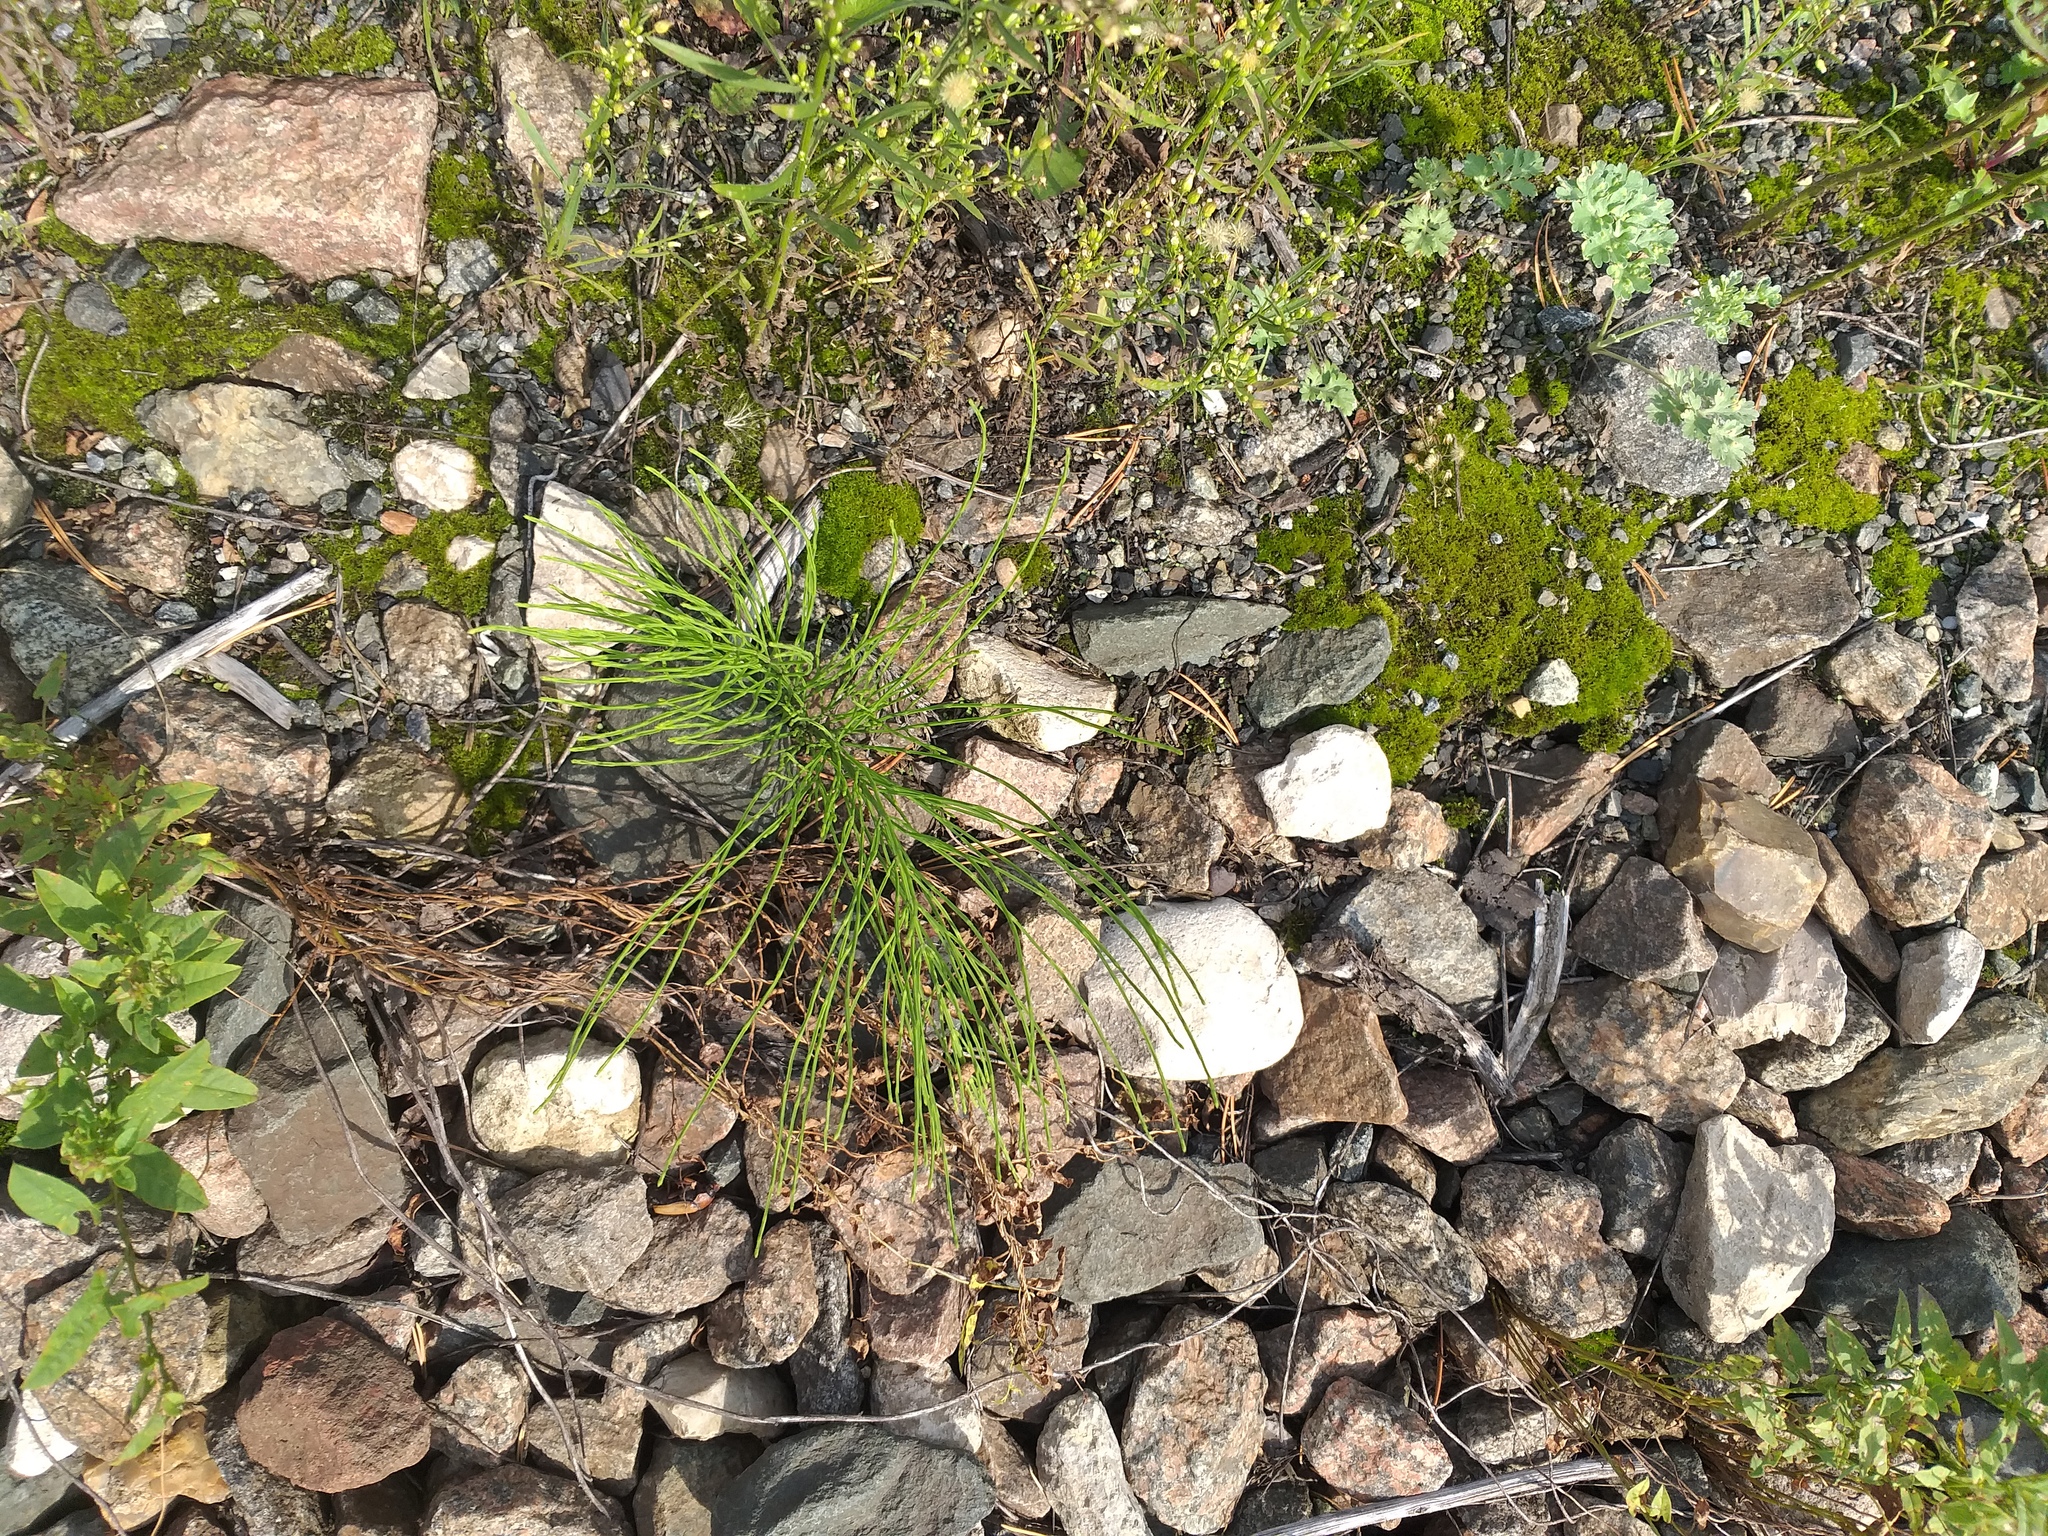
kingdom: Plantae
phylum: Tracheophyta
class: Polypodiopsida
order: Equisetales
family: Equisetaceae
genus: Equisetum
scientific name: Equisetum arvense
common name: Field horsetail
